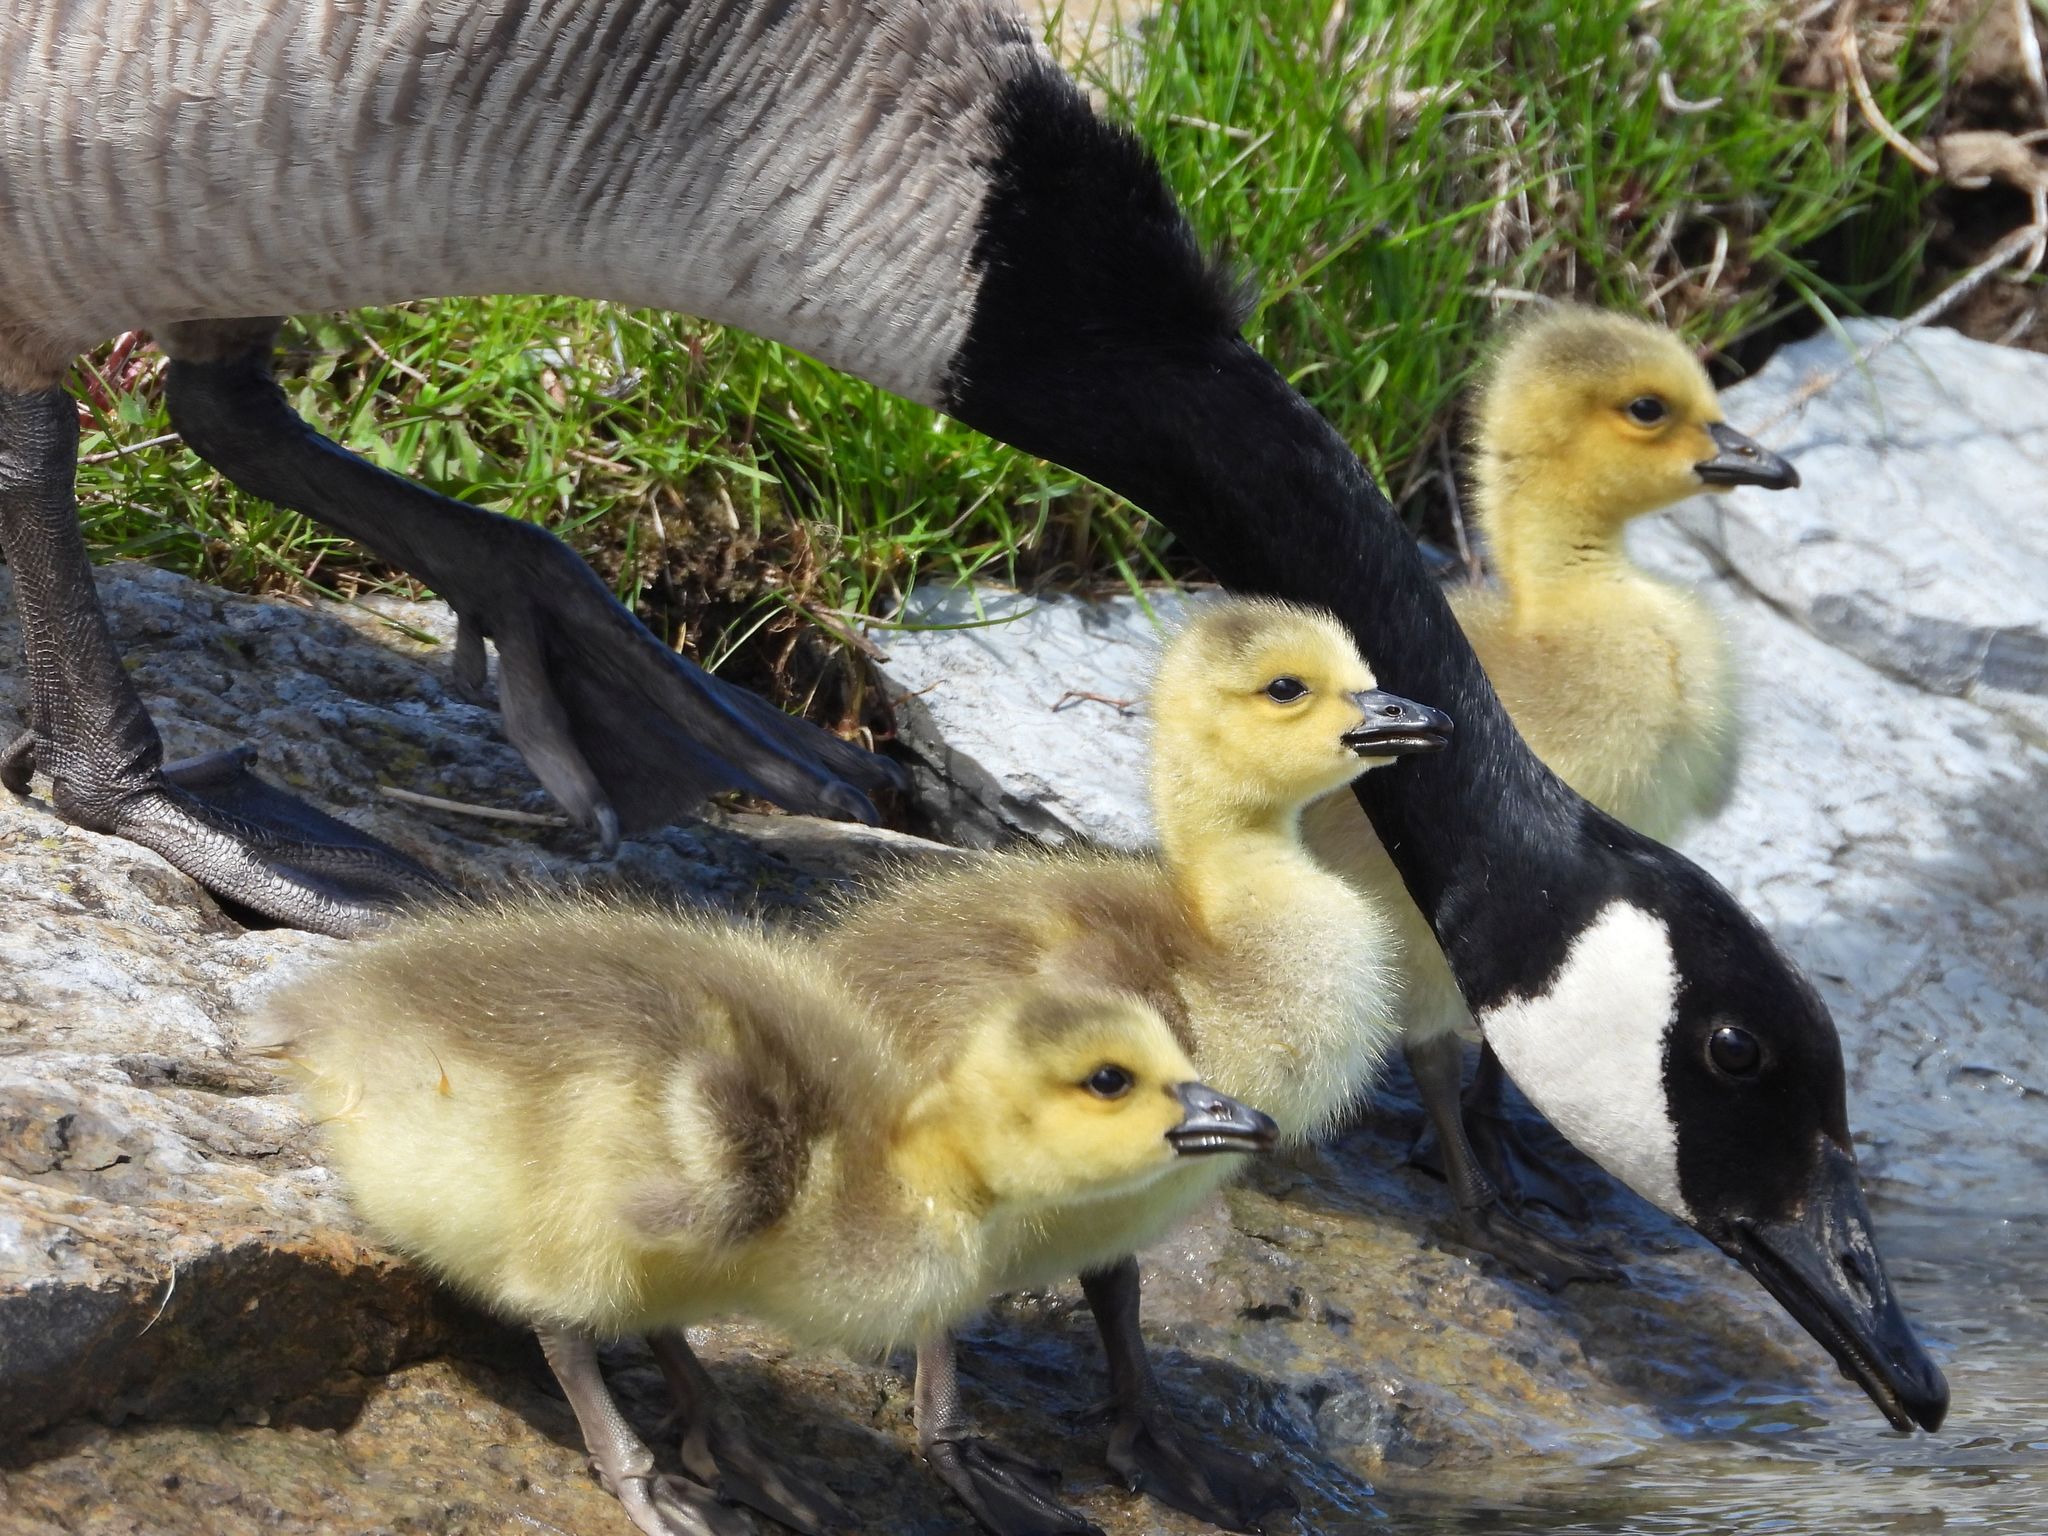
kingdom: Animalia
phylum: Chordata
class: Aves
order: Anseriformes
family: Anatidae
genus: Branta
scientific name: Branta canadensis
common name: Canada goose
